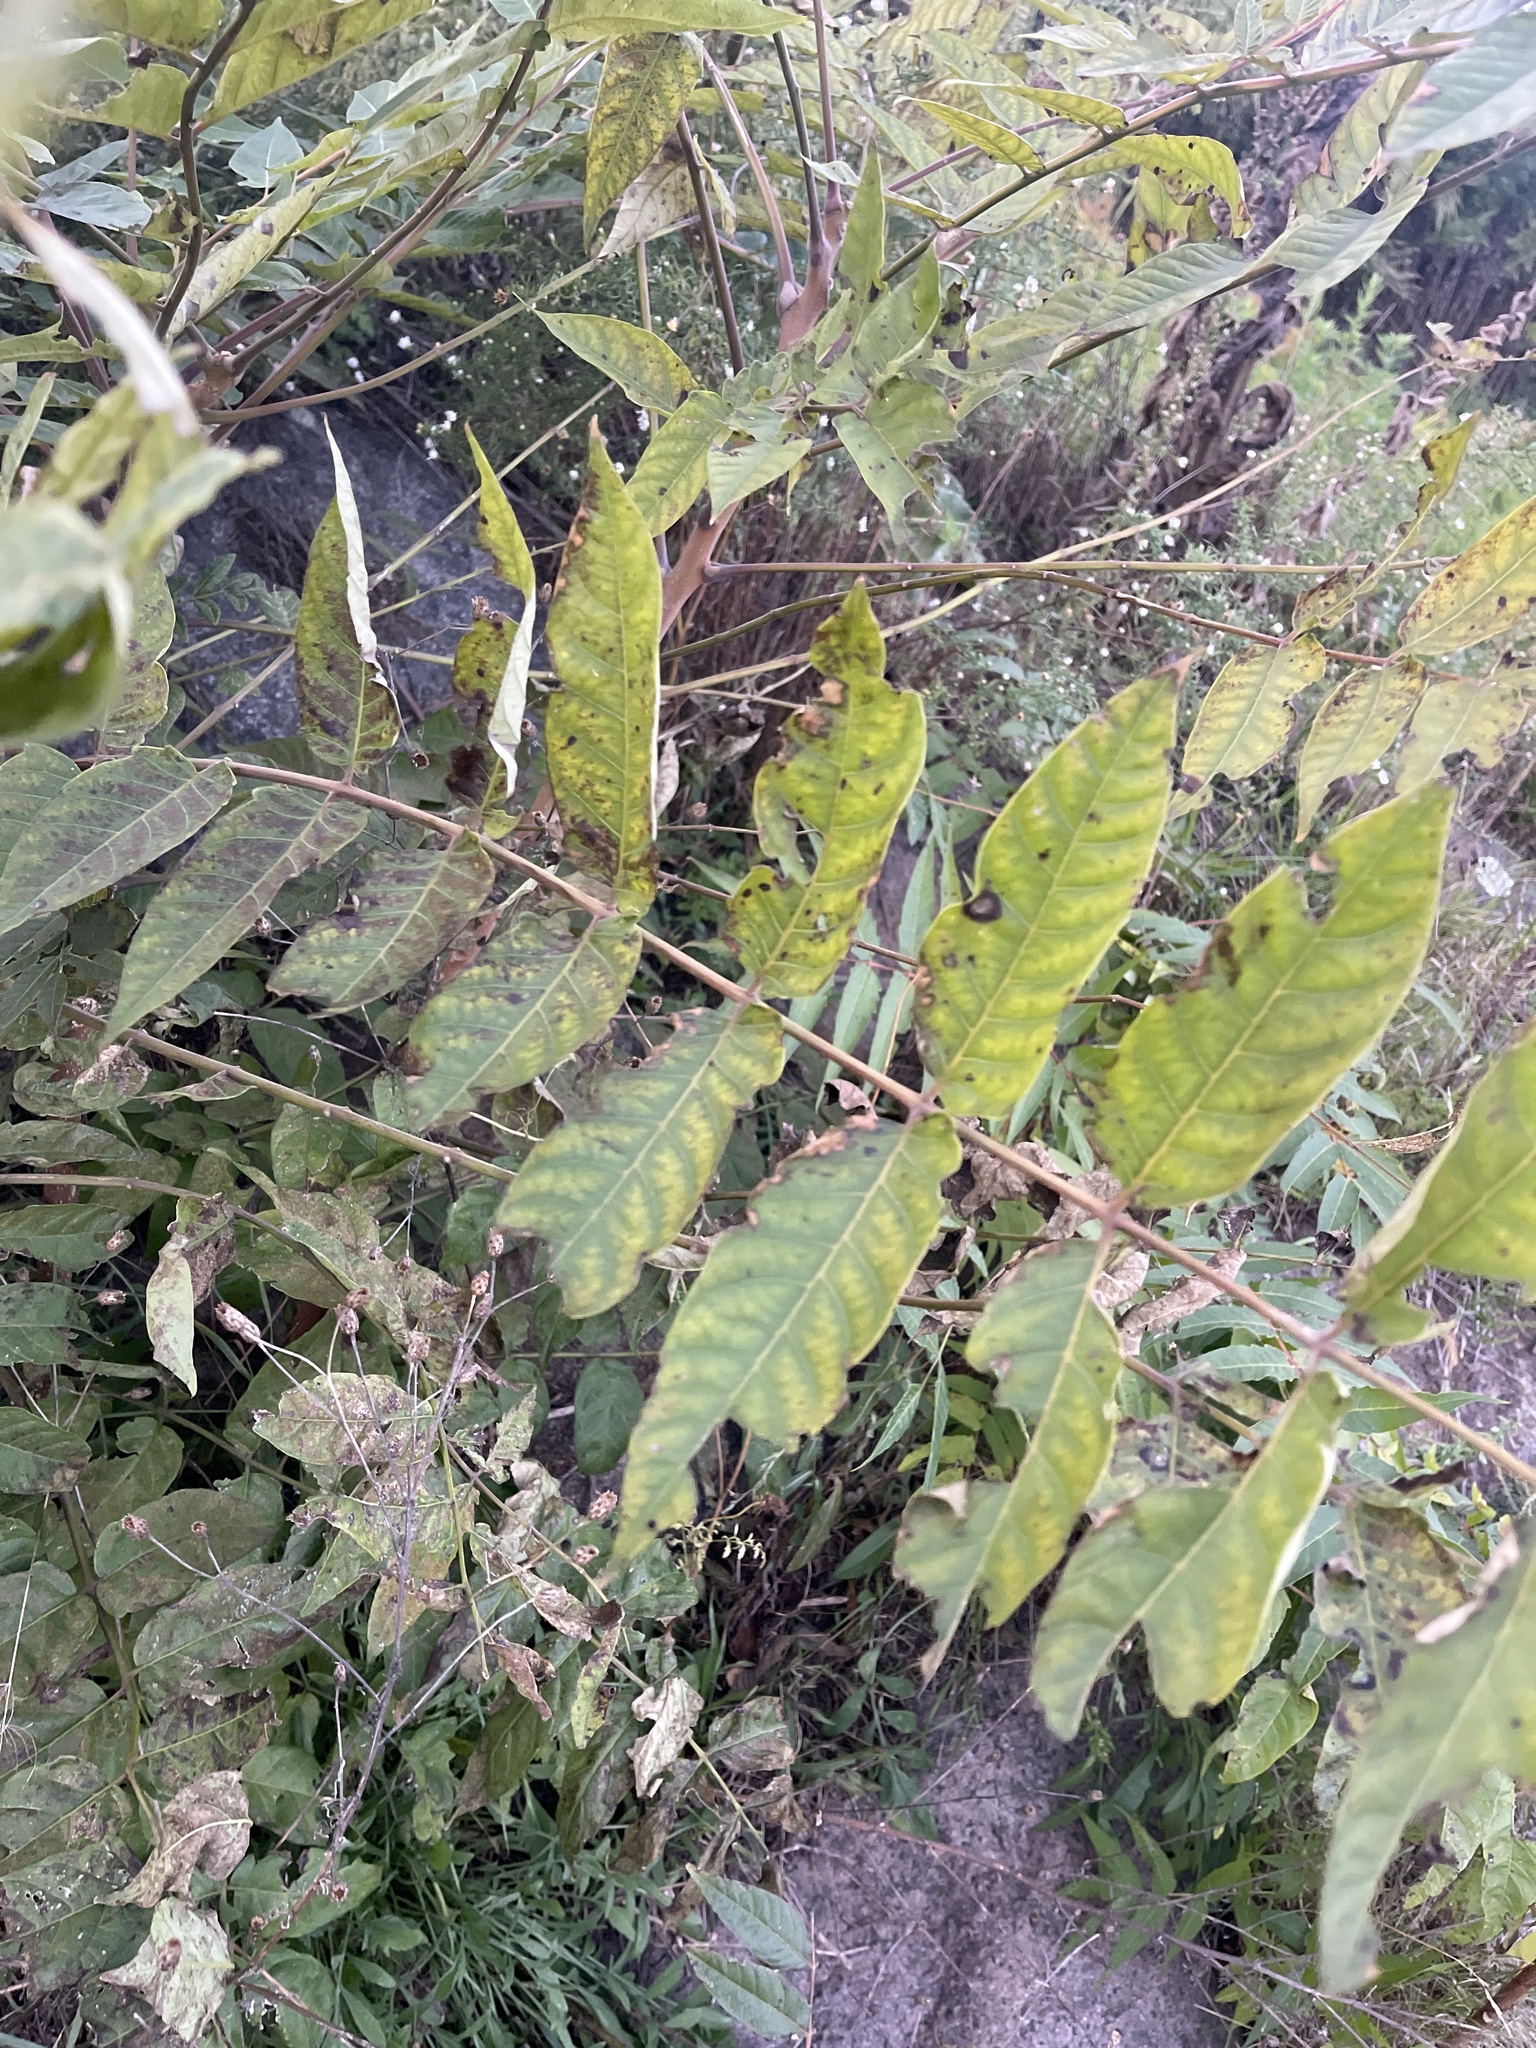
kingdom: Plantae
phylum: Tracheophyta
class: Magnoliopsida
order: Sapindales
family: Simaroubaceae
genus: Ailanthus
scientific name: Ailanthus altissima
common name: Tree-of-heaven
